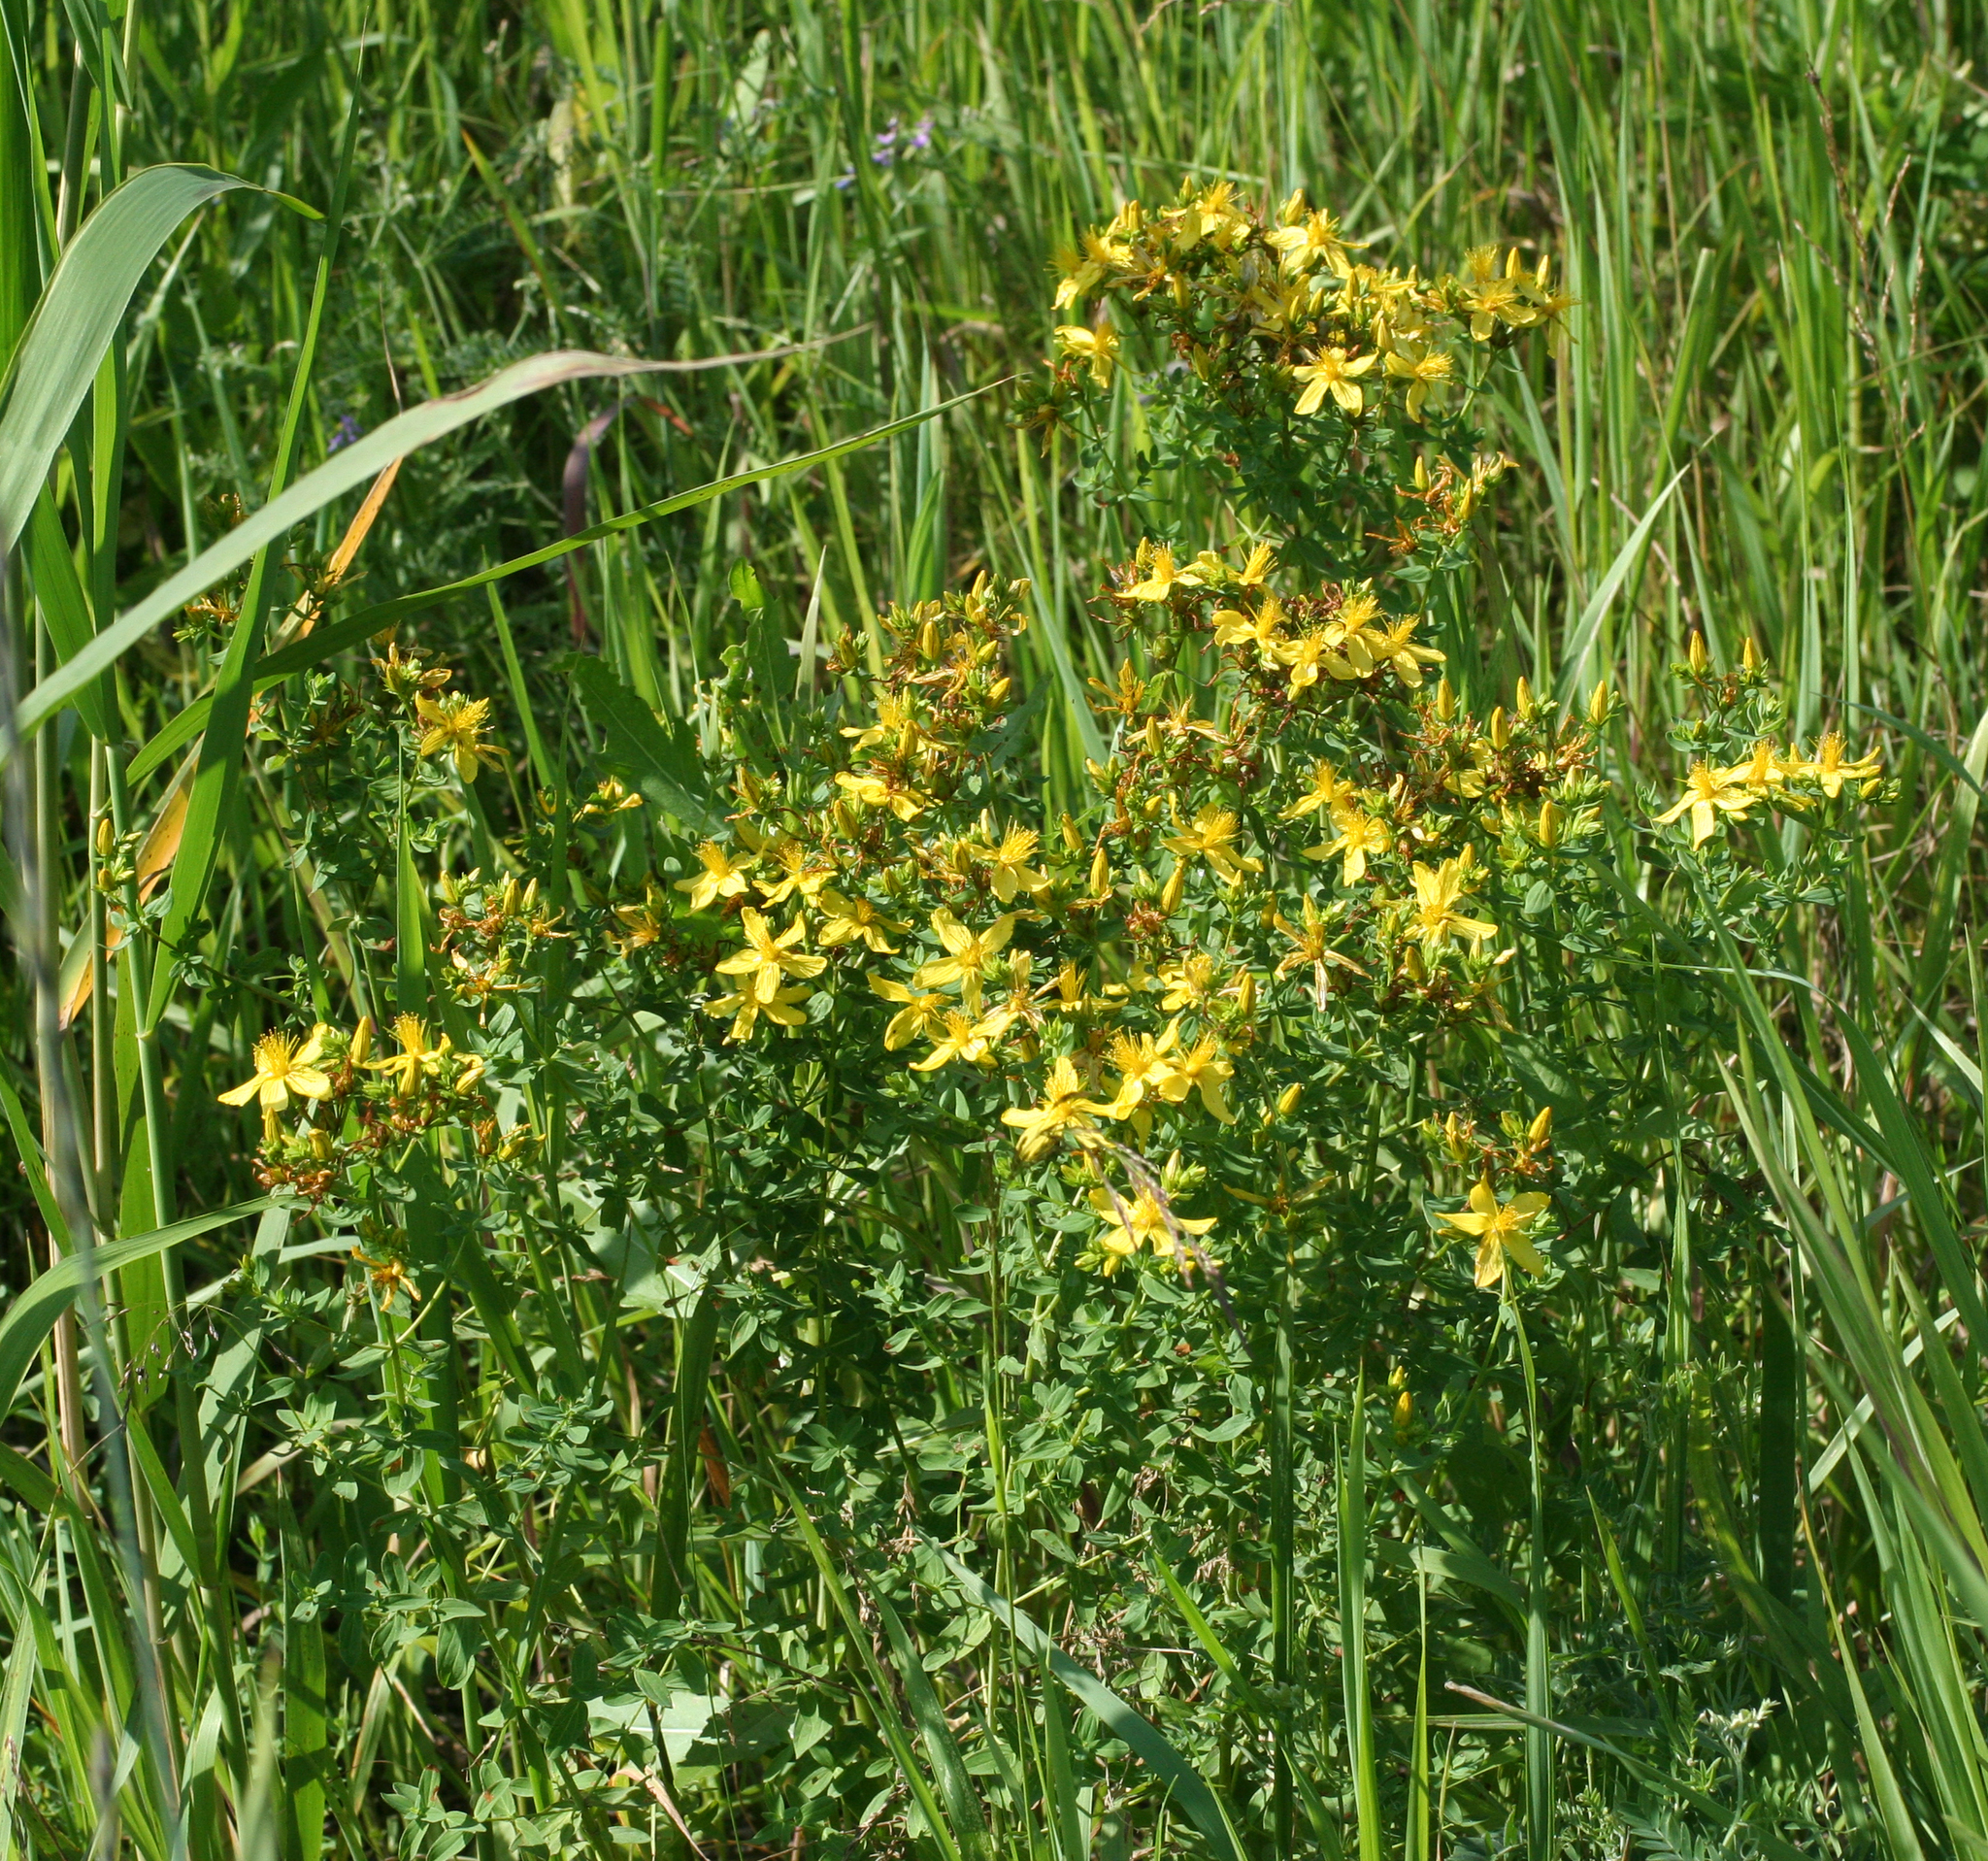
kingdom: Plantae
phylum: Tracheophyta
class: Magnoliopsida
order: Malpighiales
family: Hypericaceae
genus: Hypericum
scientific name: Hypericum perforatum
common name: Common st. johnswort
